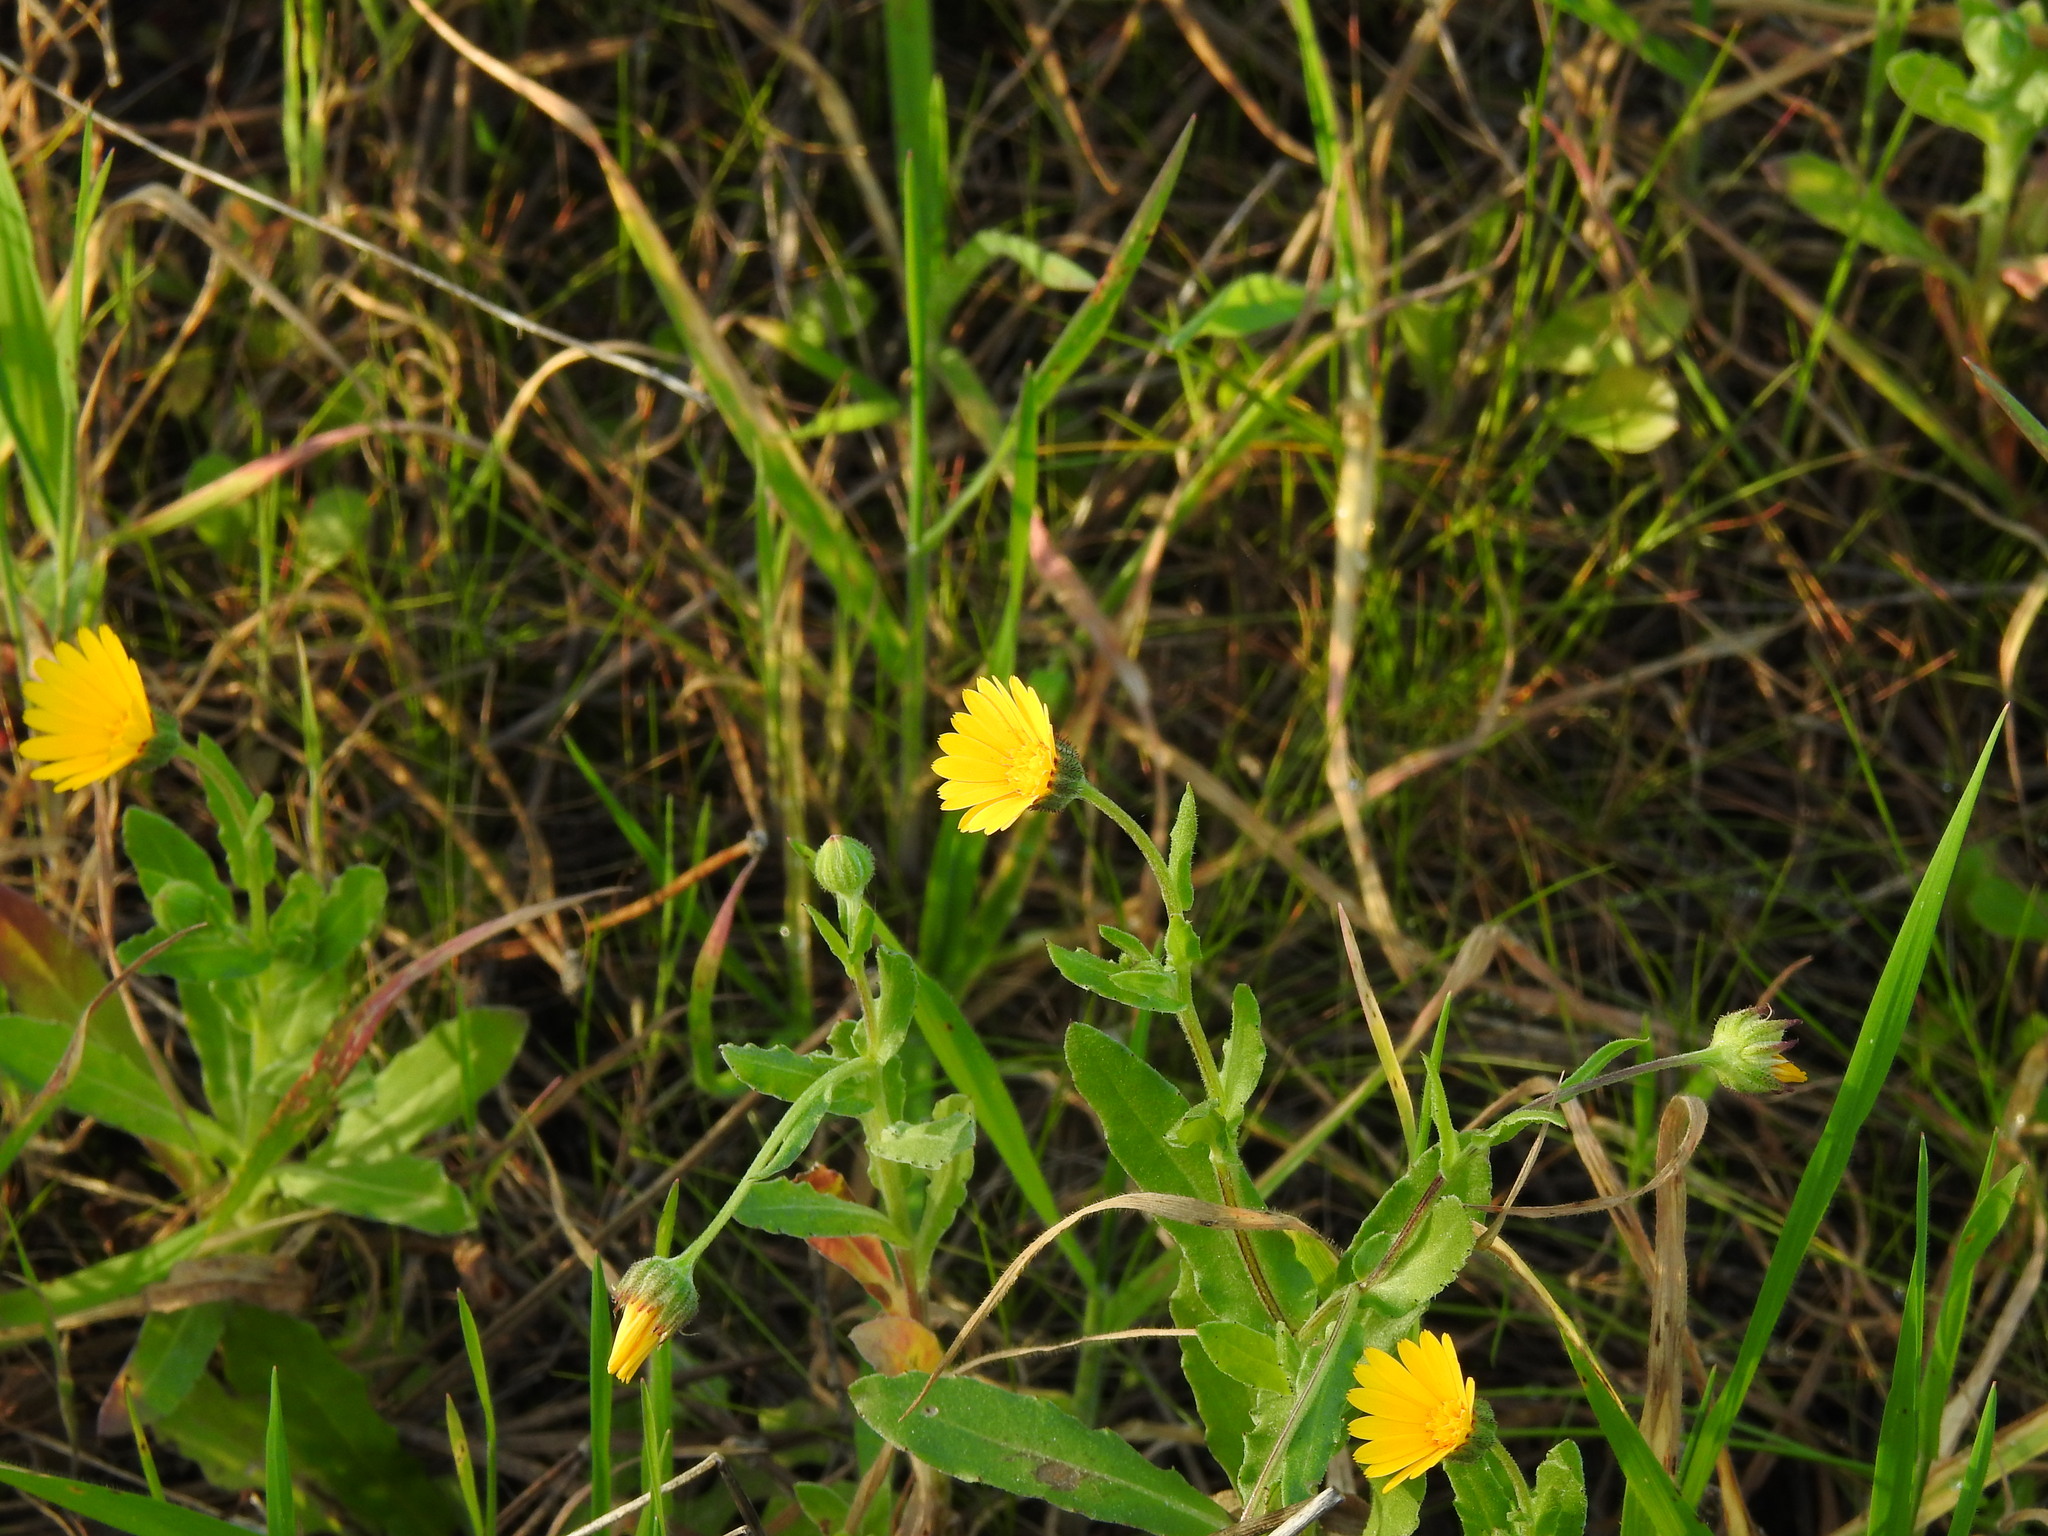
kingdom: Plantae
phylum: Tracheophyta
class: Magnoliopsida
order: Asterales
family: Asteraceae
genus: Calendula
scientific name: Calendula arvensis
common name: Field marigold
